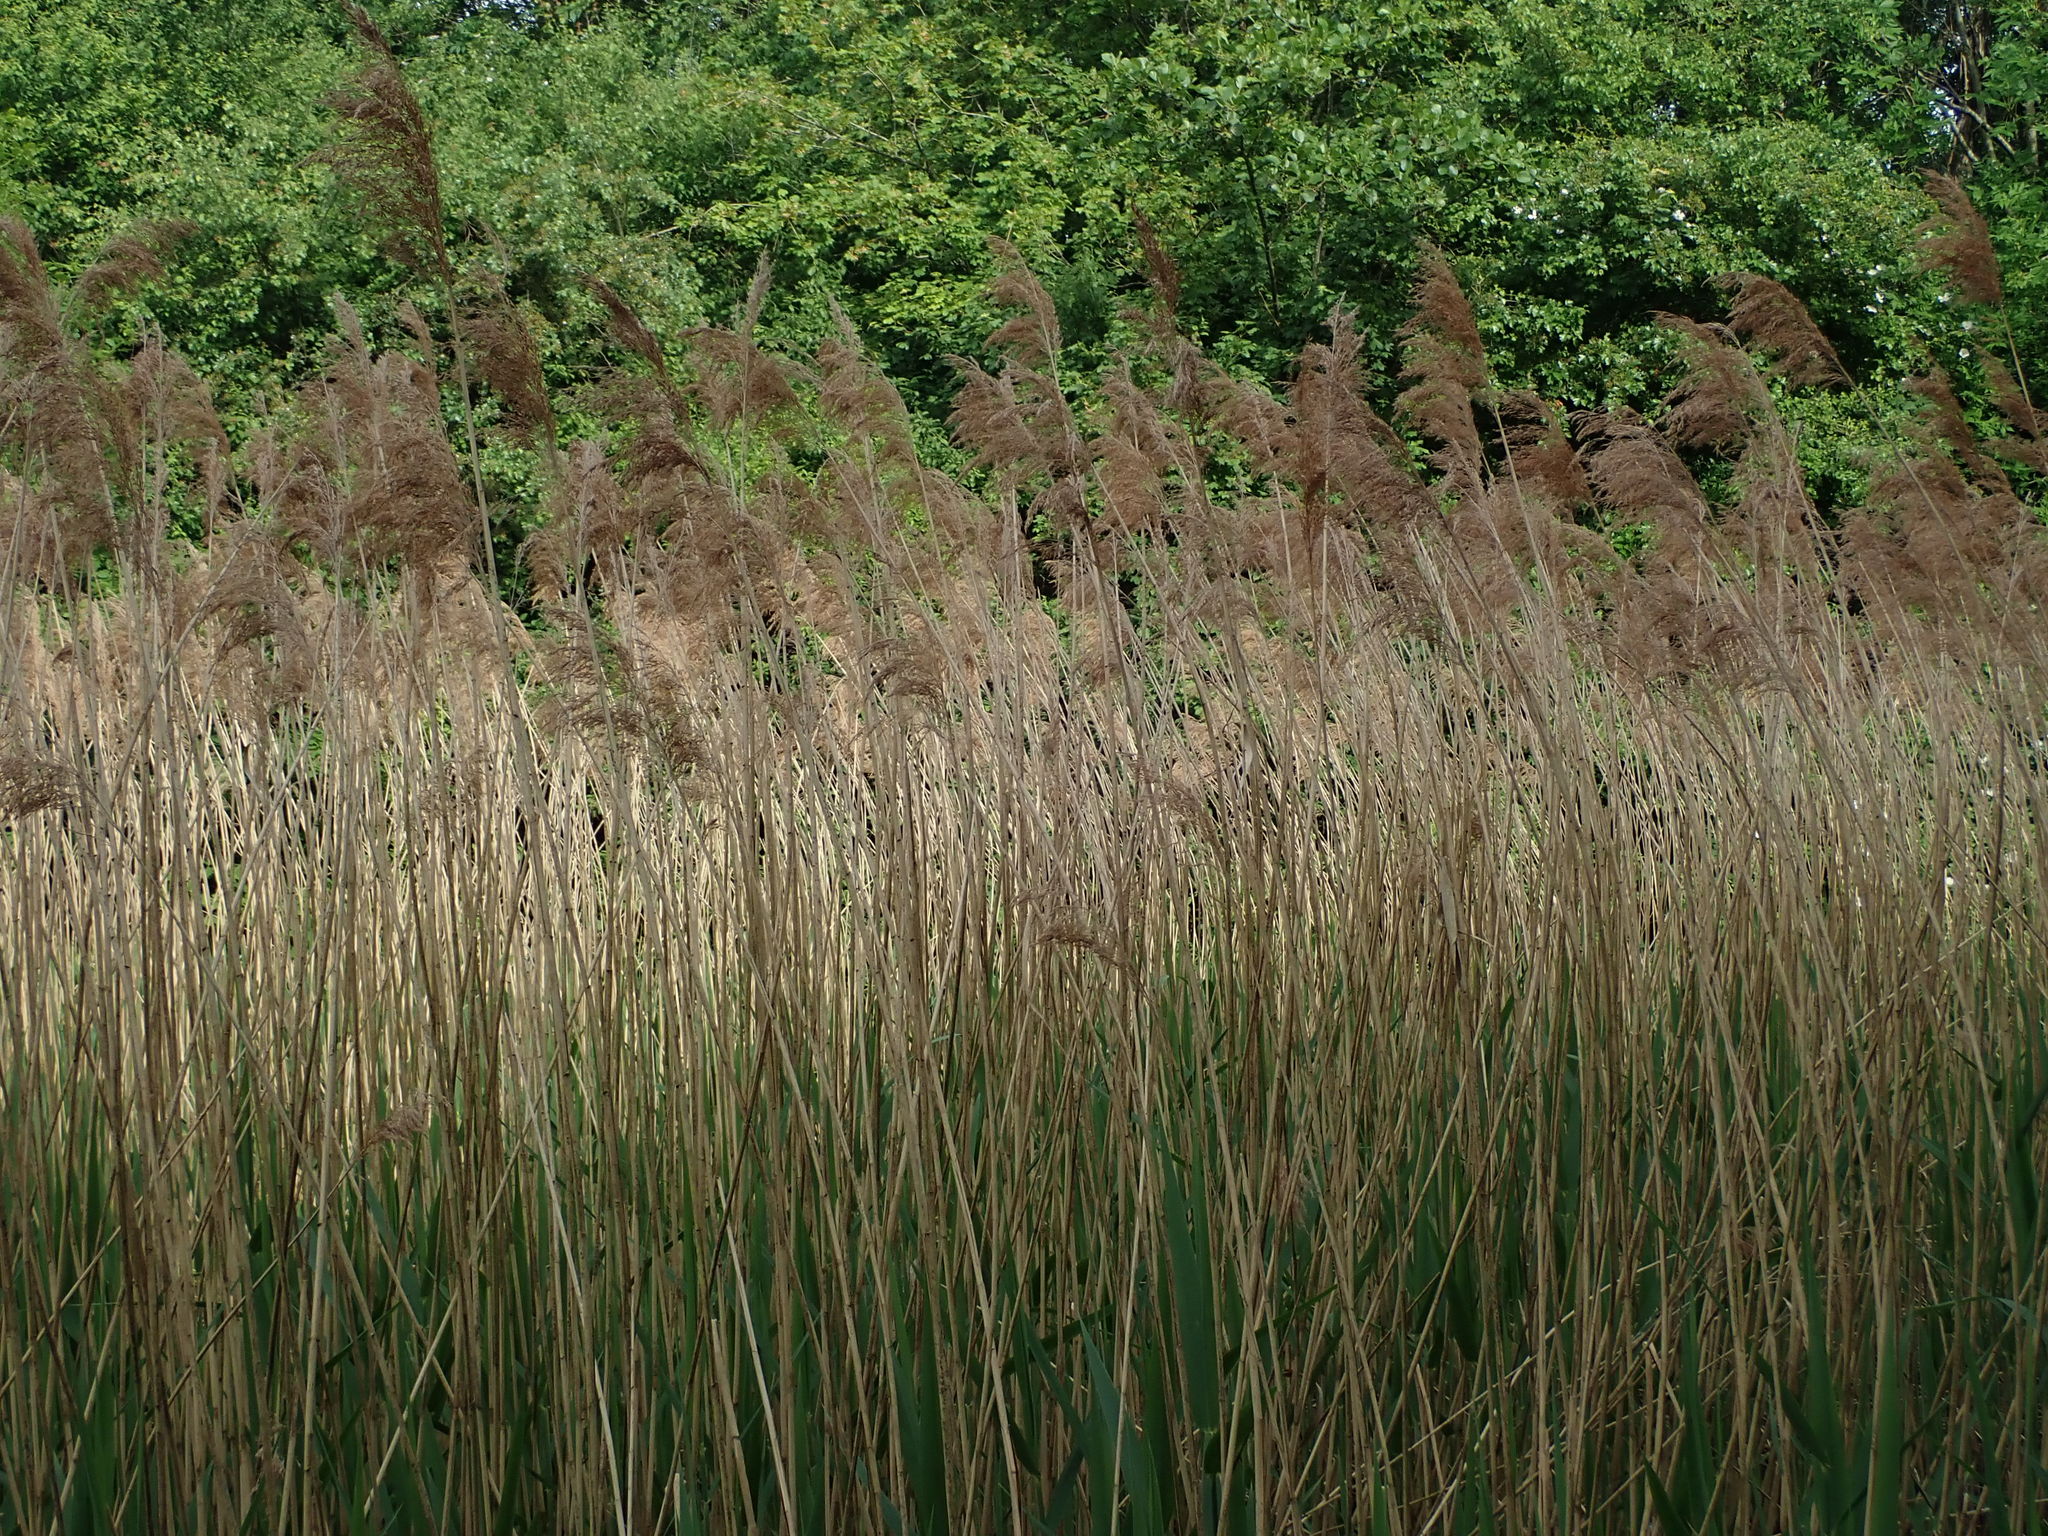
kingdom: Plantae
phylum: Tracheophyta
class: Liliopsida
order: Poales
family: Poaceae
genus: Phragmites
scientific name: Phragmites australis
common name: Common reed
